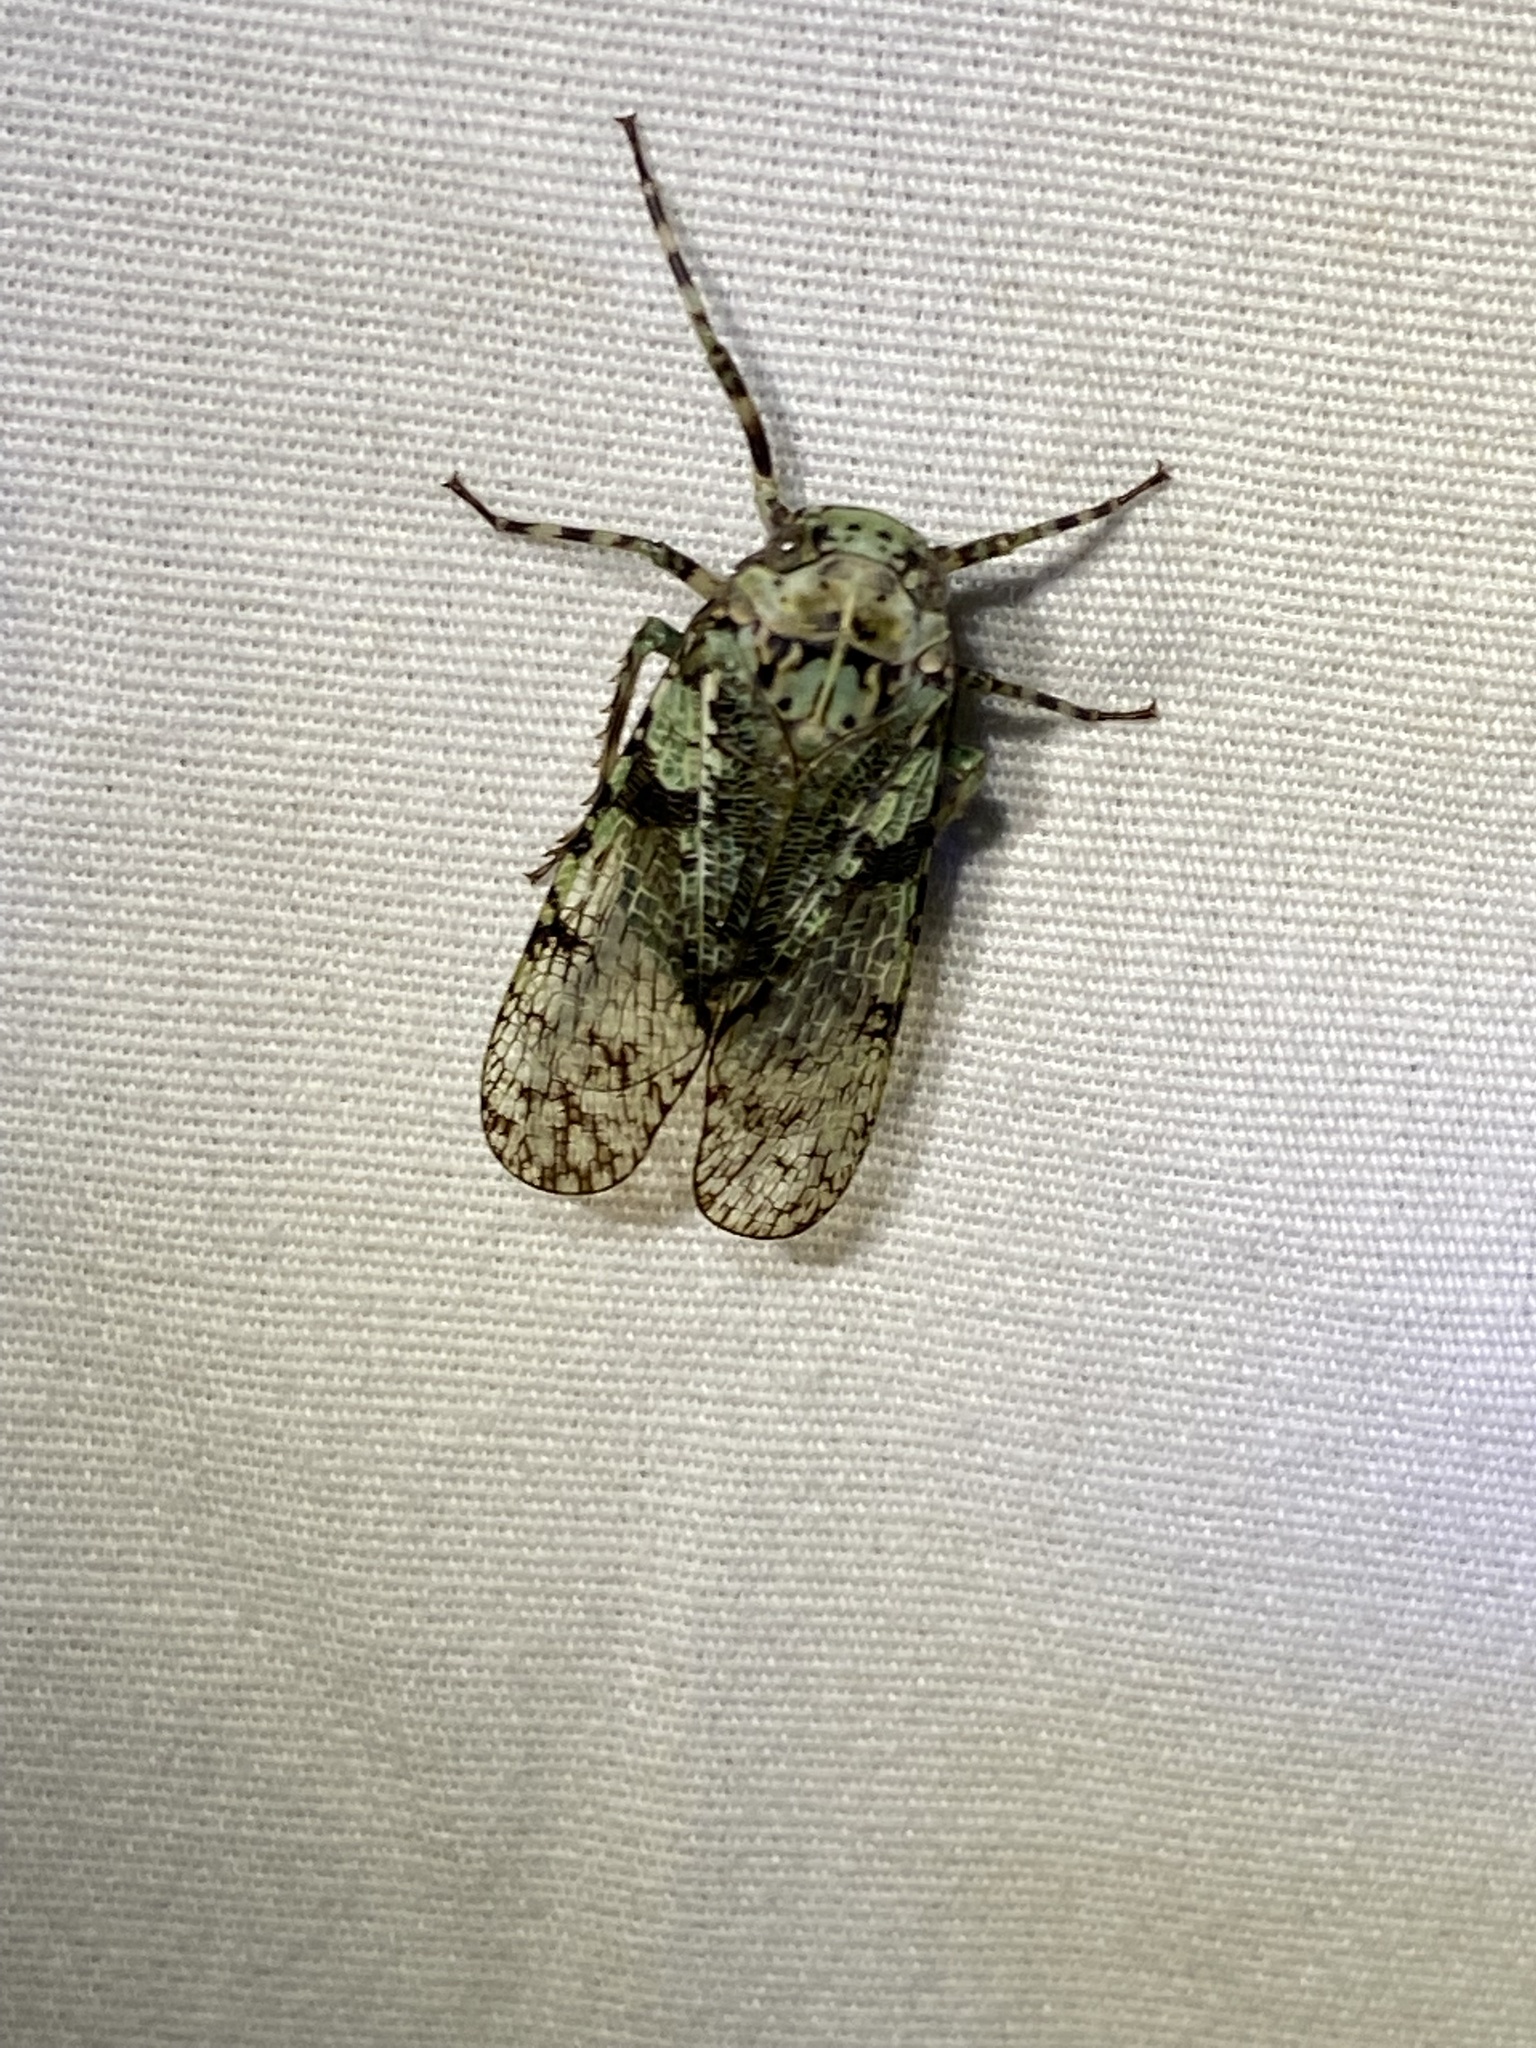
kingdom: Animalia
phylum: Arthropoda
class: Insecta
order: Hemiptera
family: Fulgoridae
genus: Calyptoproctus
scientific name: Calyptoproctus marmoratus
